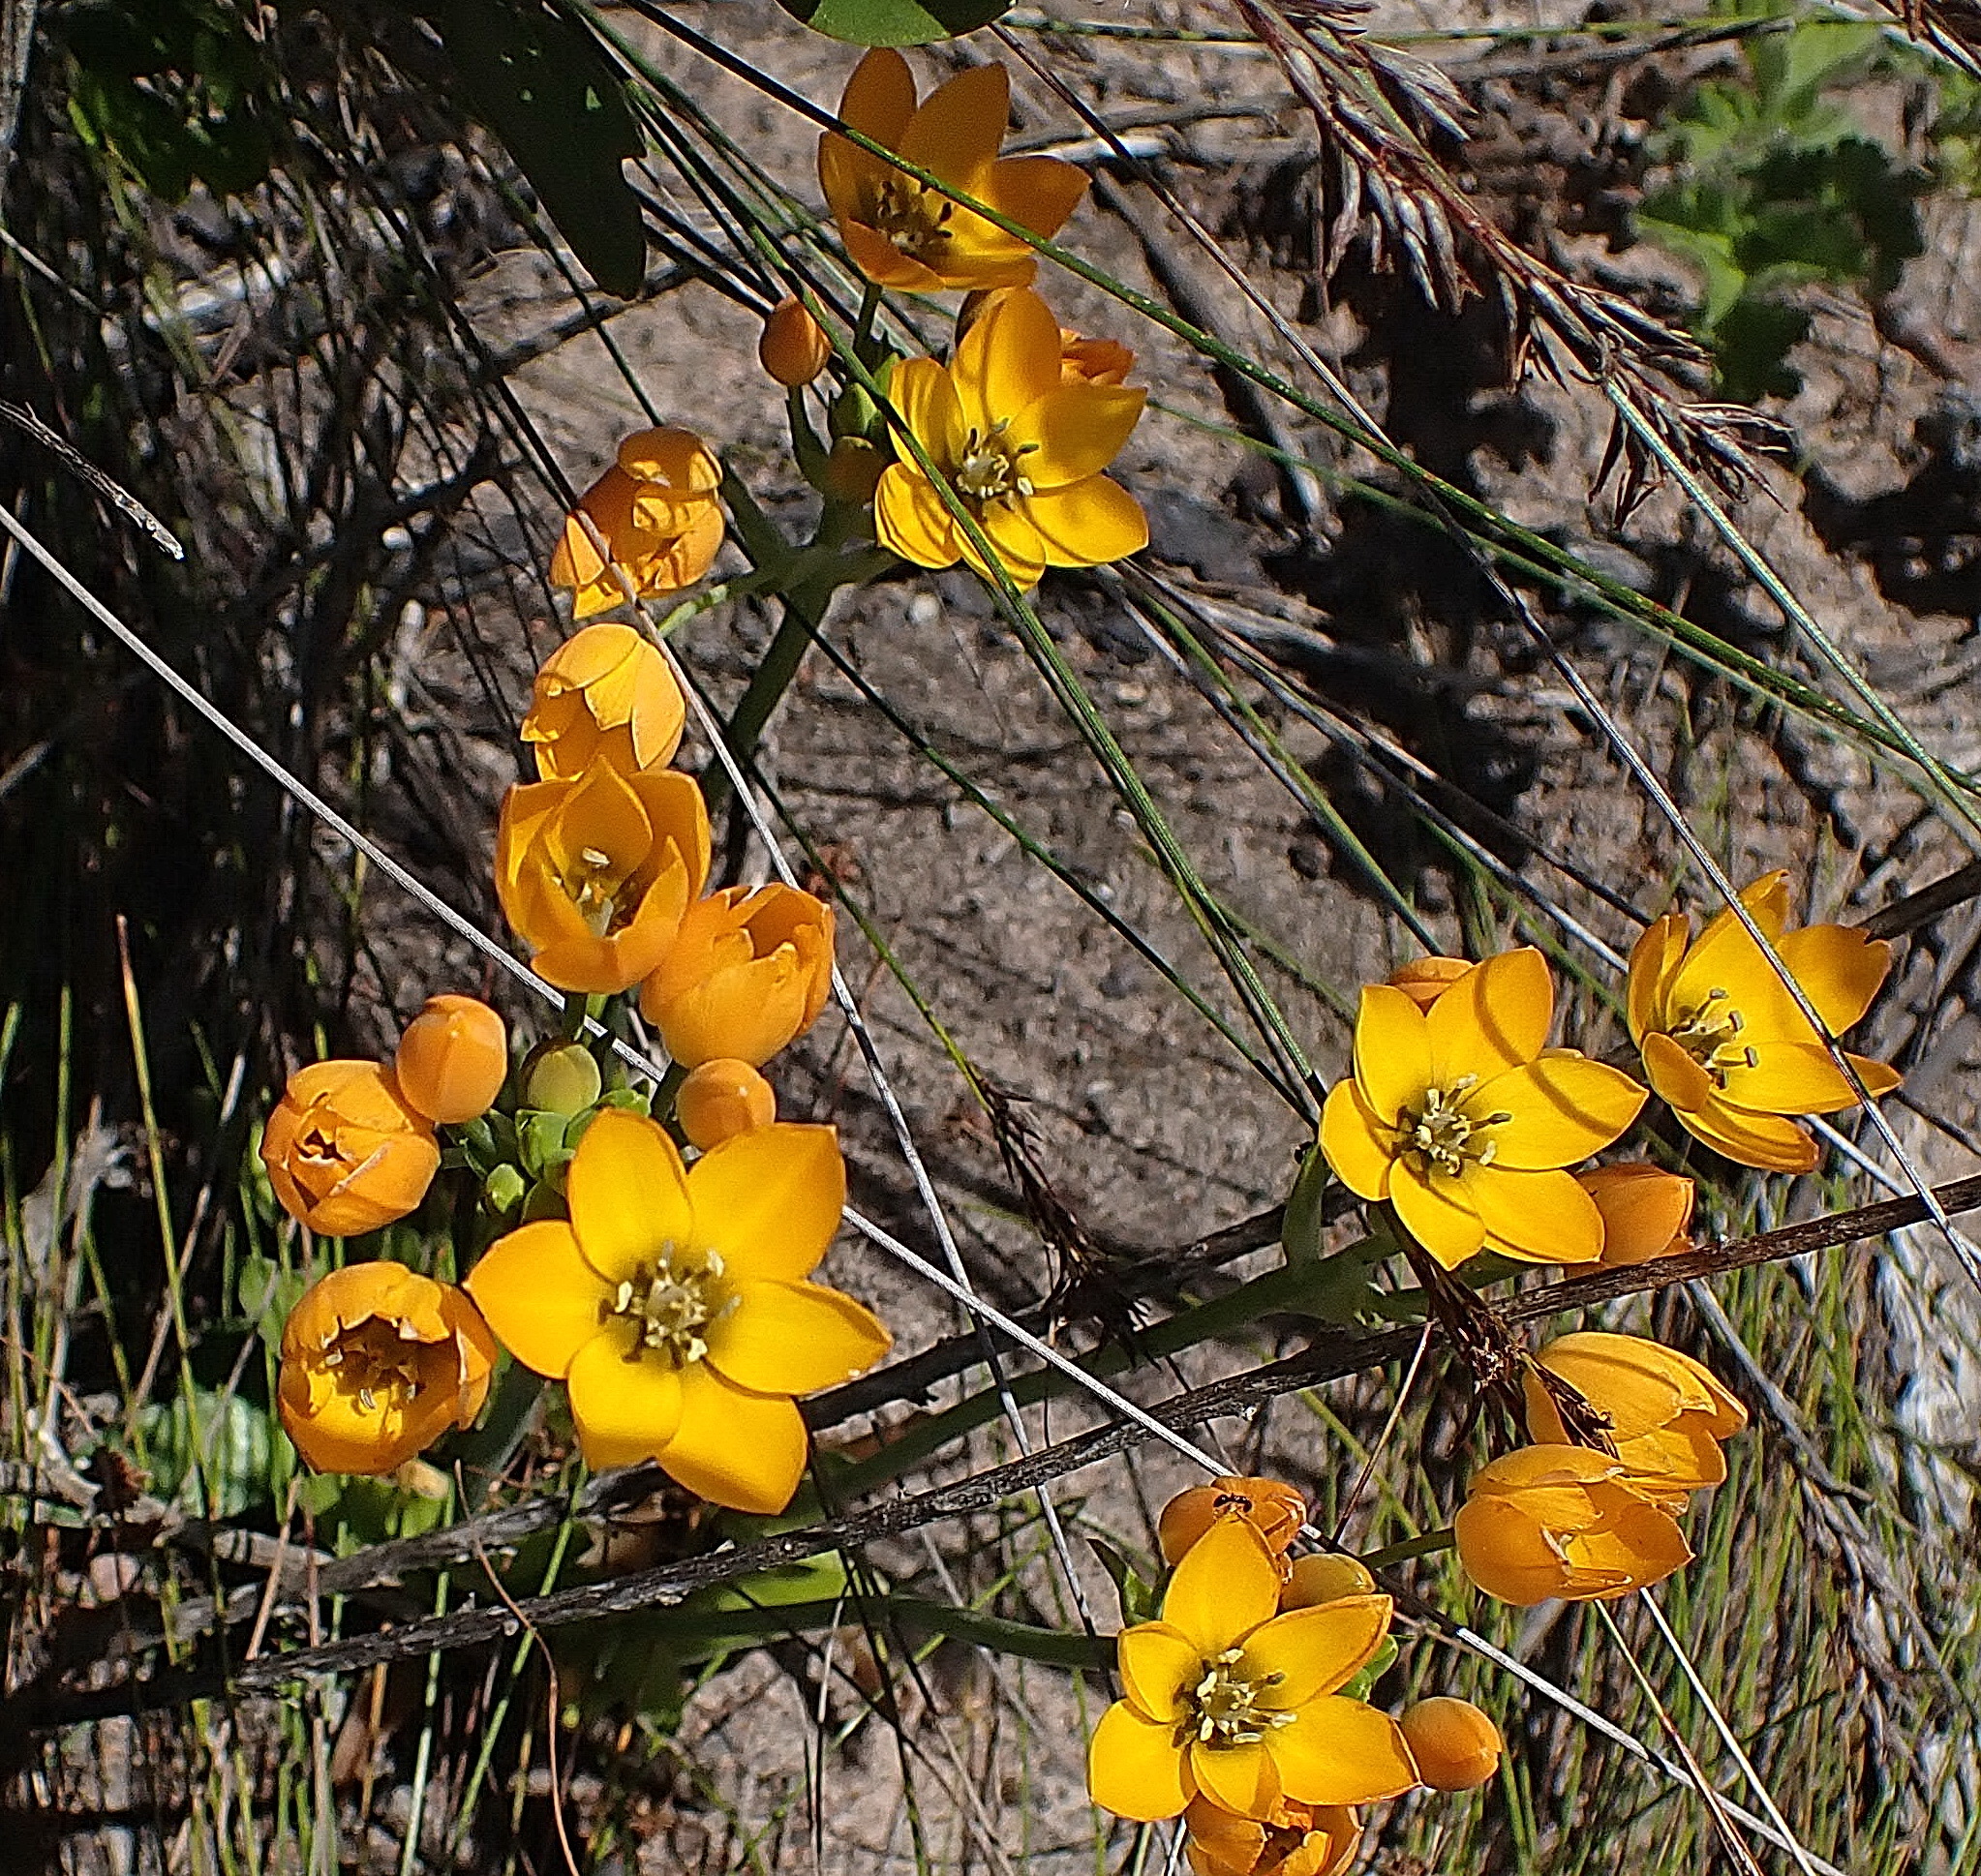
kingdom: Plantae
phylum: Tracheophyta
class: Liliopsida
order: Asparagales
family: Asparagaceae
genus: Ornithogalum
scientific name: Ornithogalum dubium
